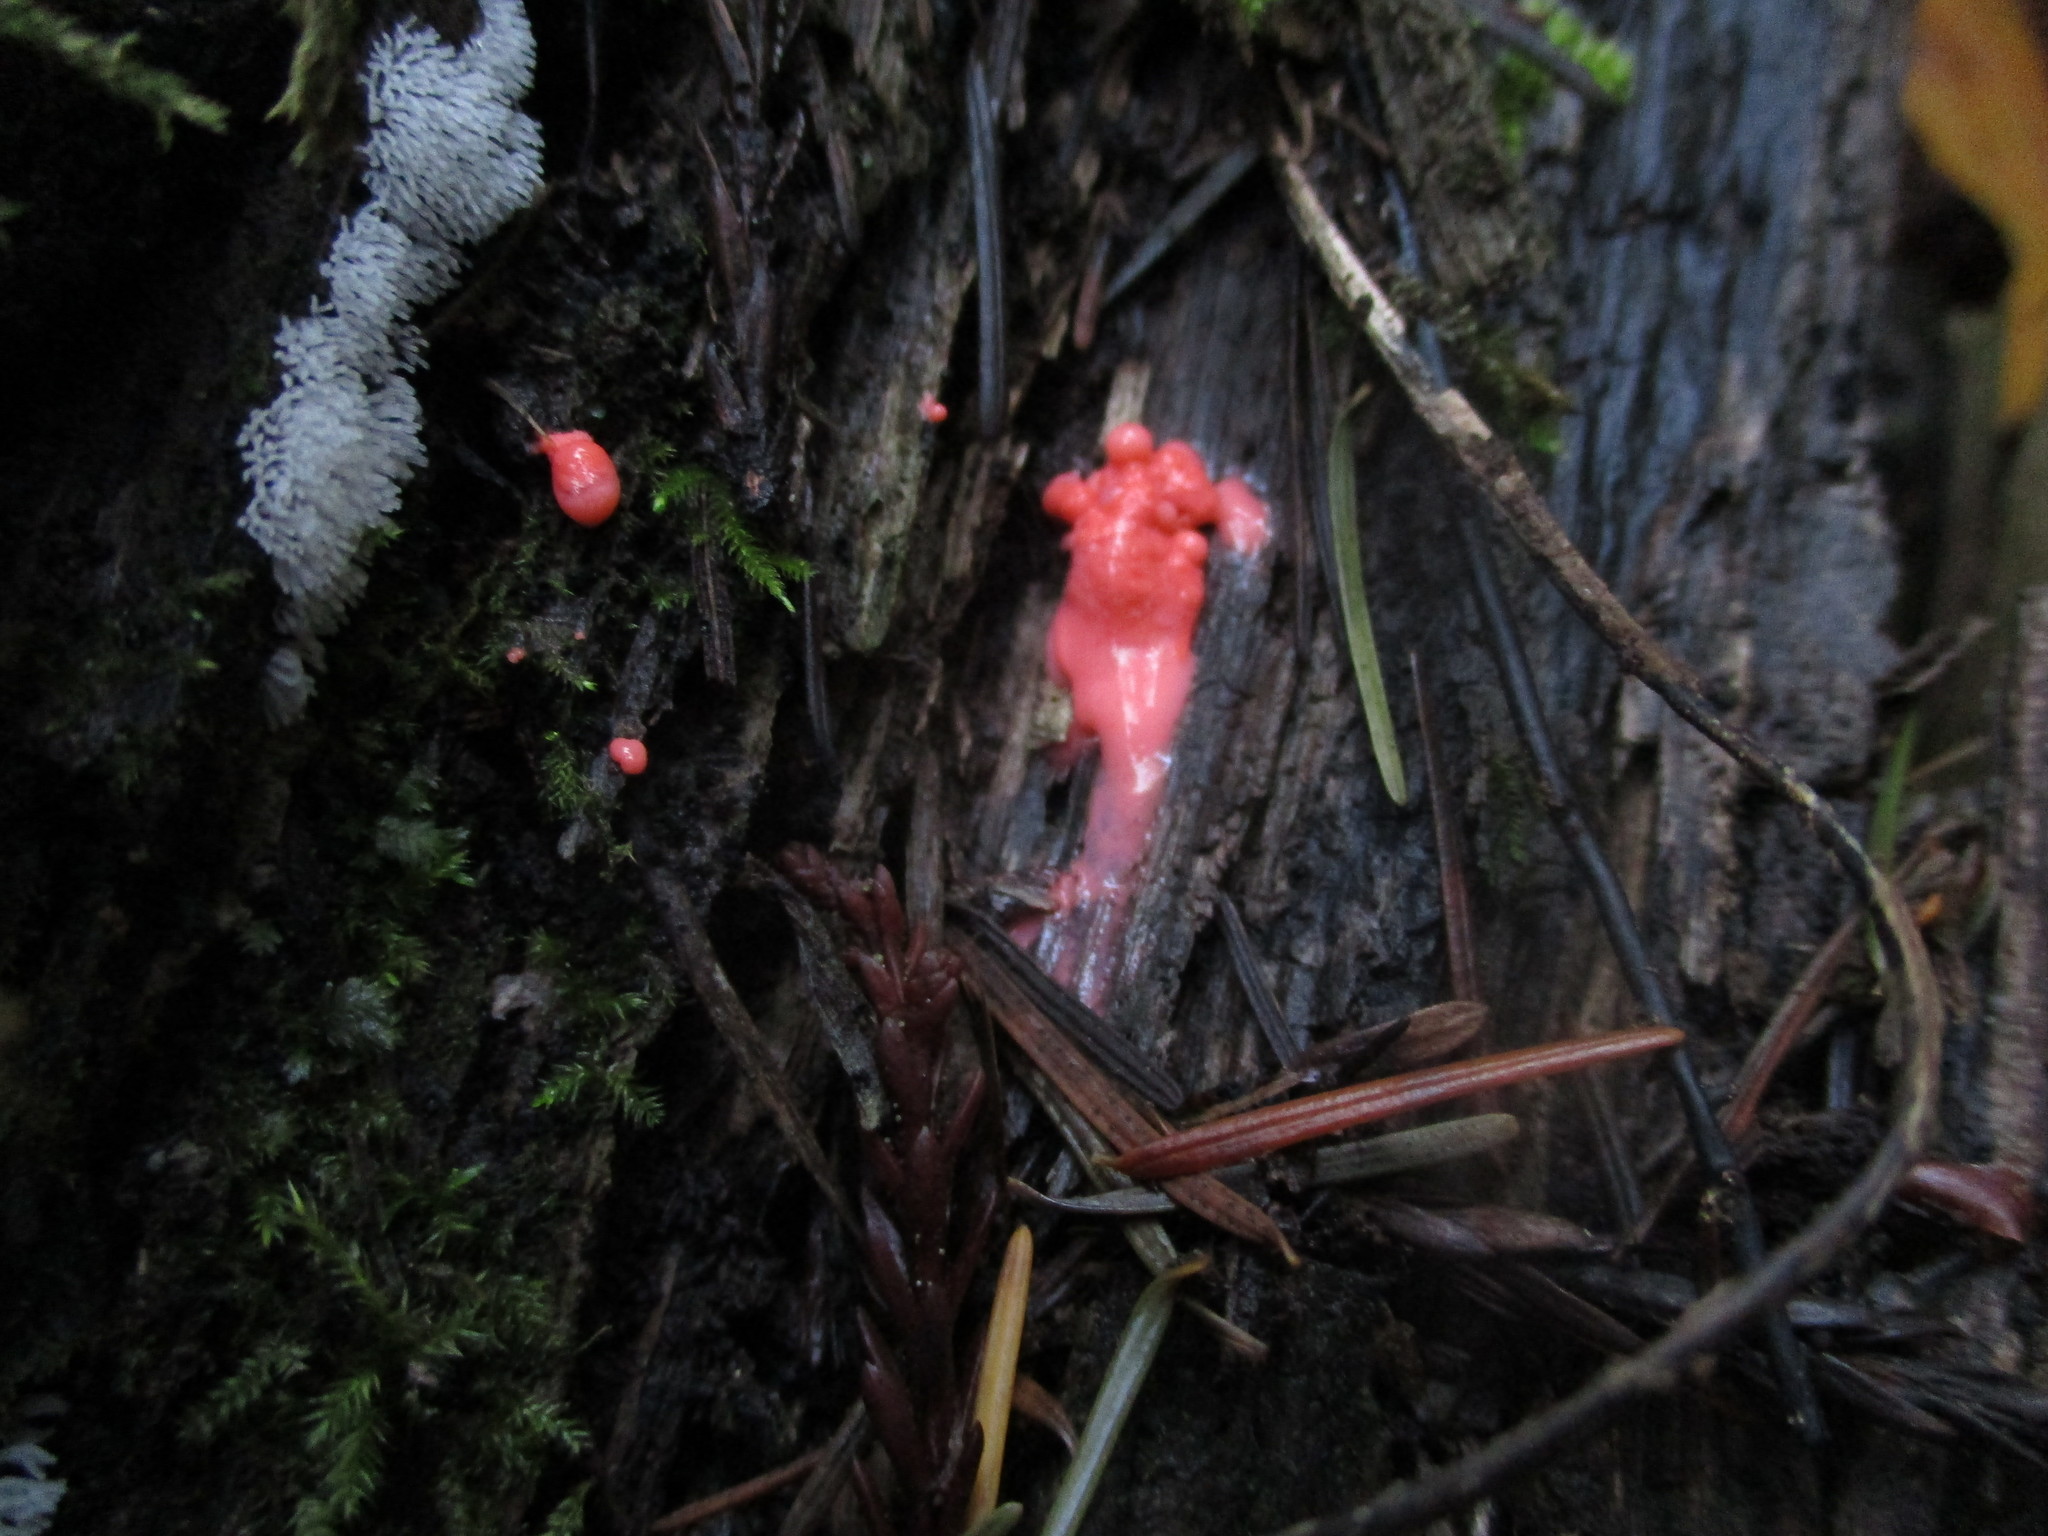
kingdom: Protozoa
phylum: Mycetozoa
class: Myxomycetes
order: Cribrariales
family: Tubiferaceae
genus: Lycogala
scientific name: Lycogala epidendrum
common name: Wolf's milk
